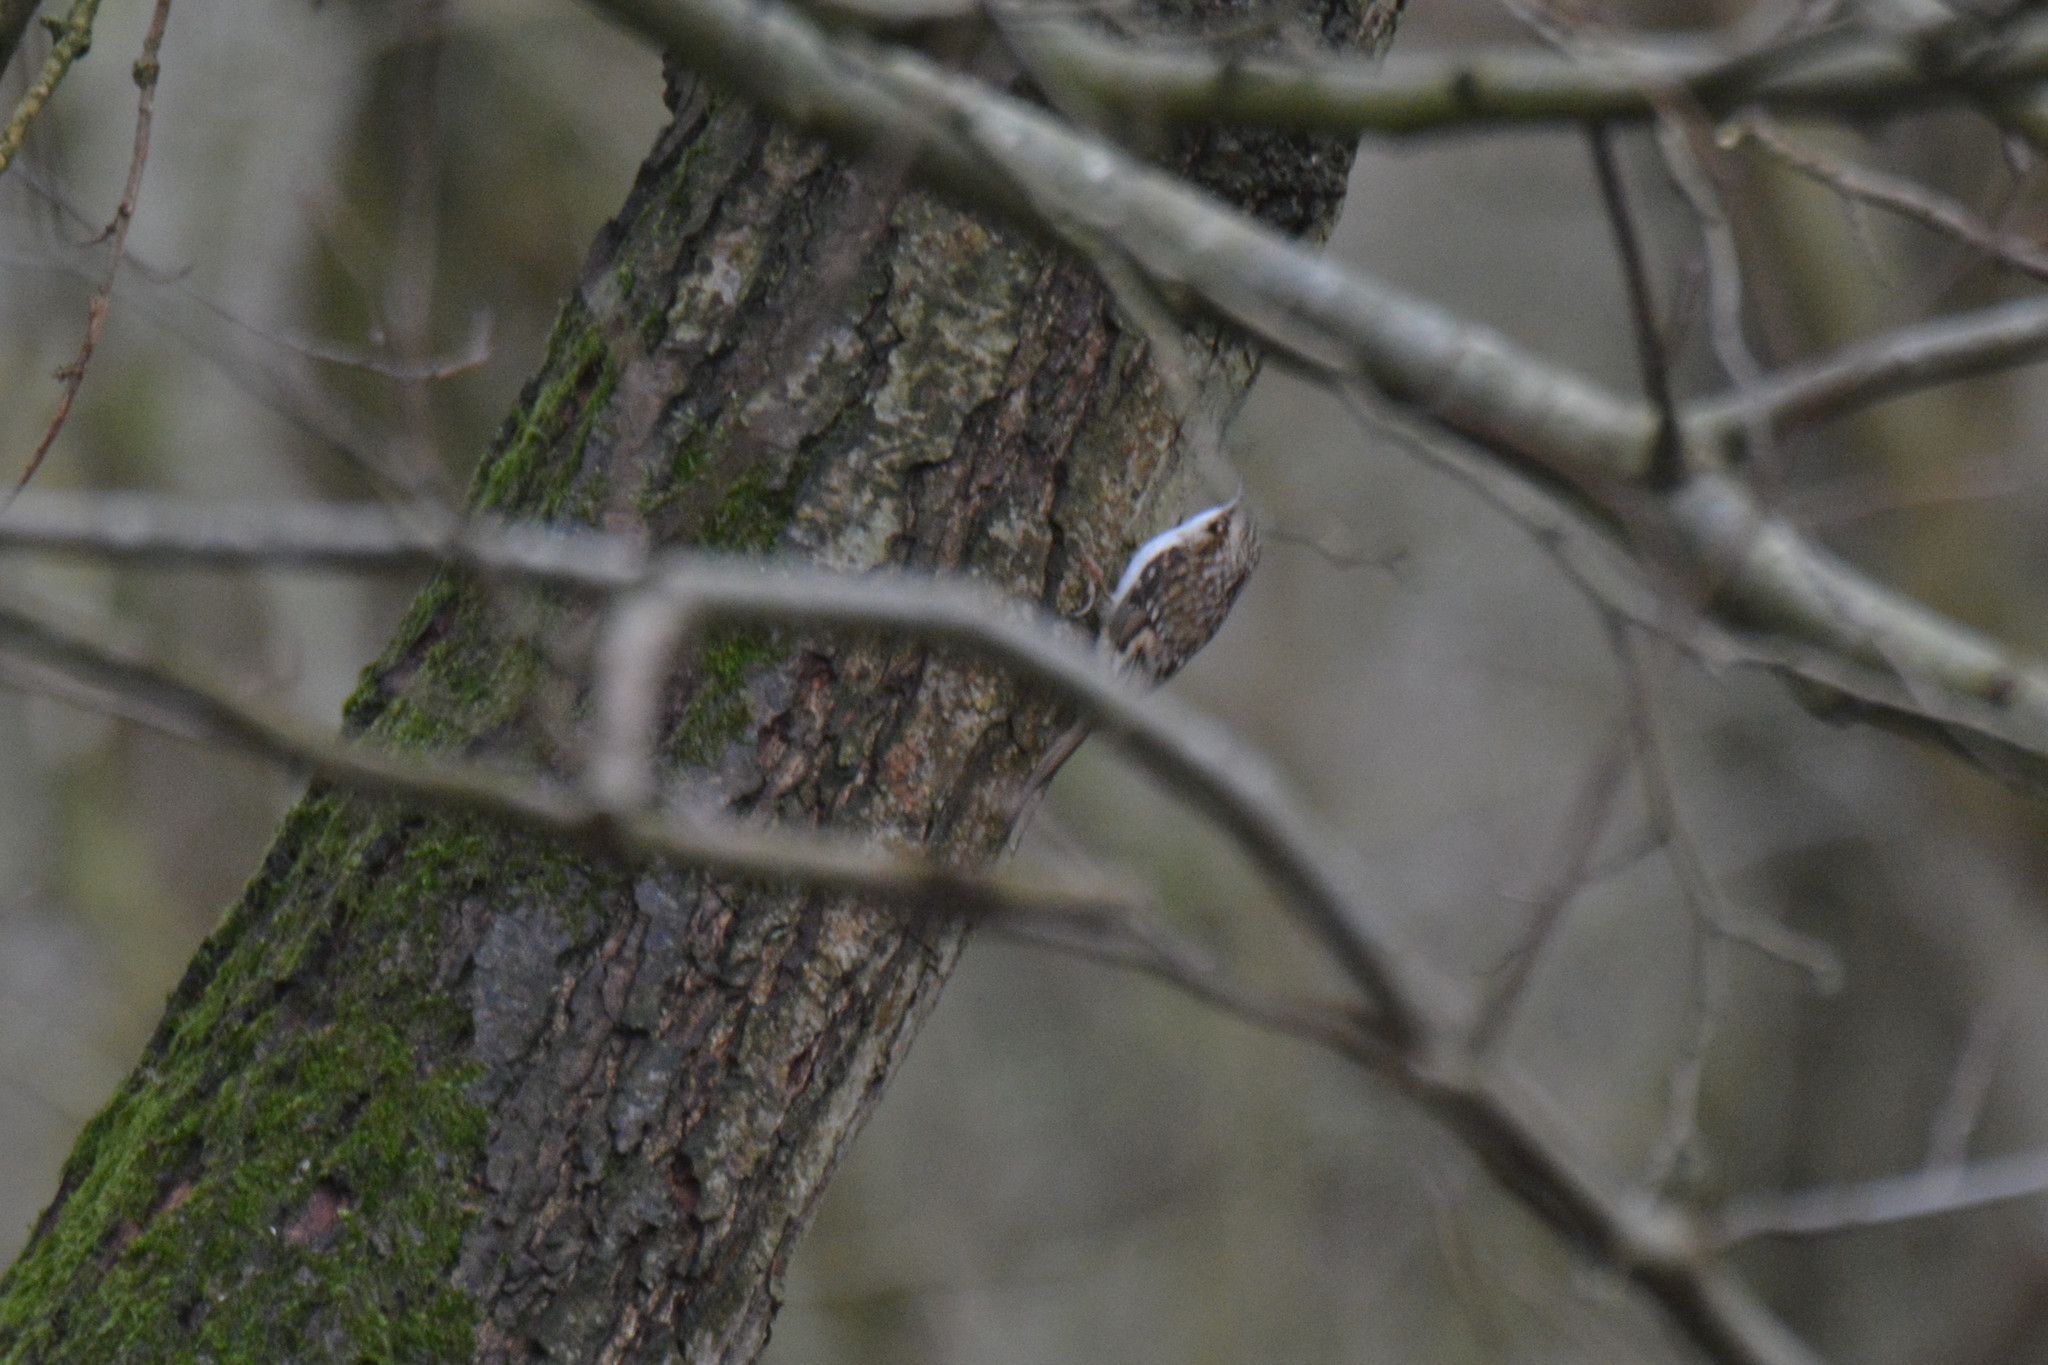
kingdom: Animalia
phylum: Chordata
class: Aves
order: Passeriformes
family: Certhiidae
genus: Certhia
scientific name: Certhia familiaris
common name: Eurasian treecreeper
